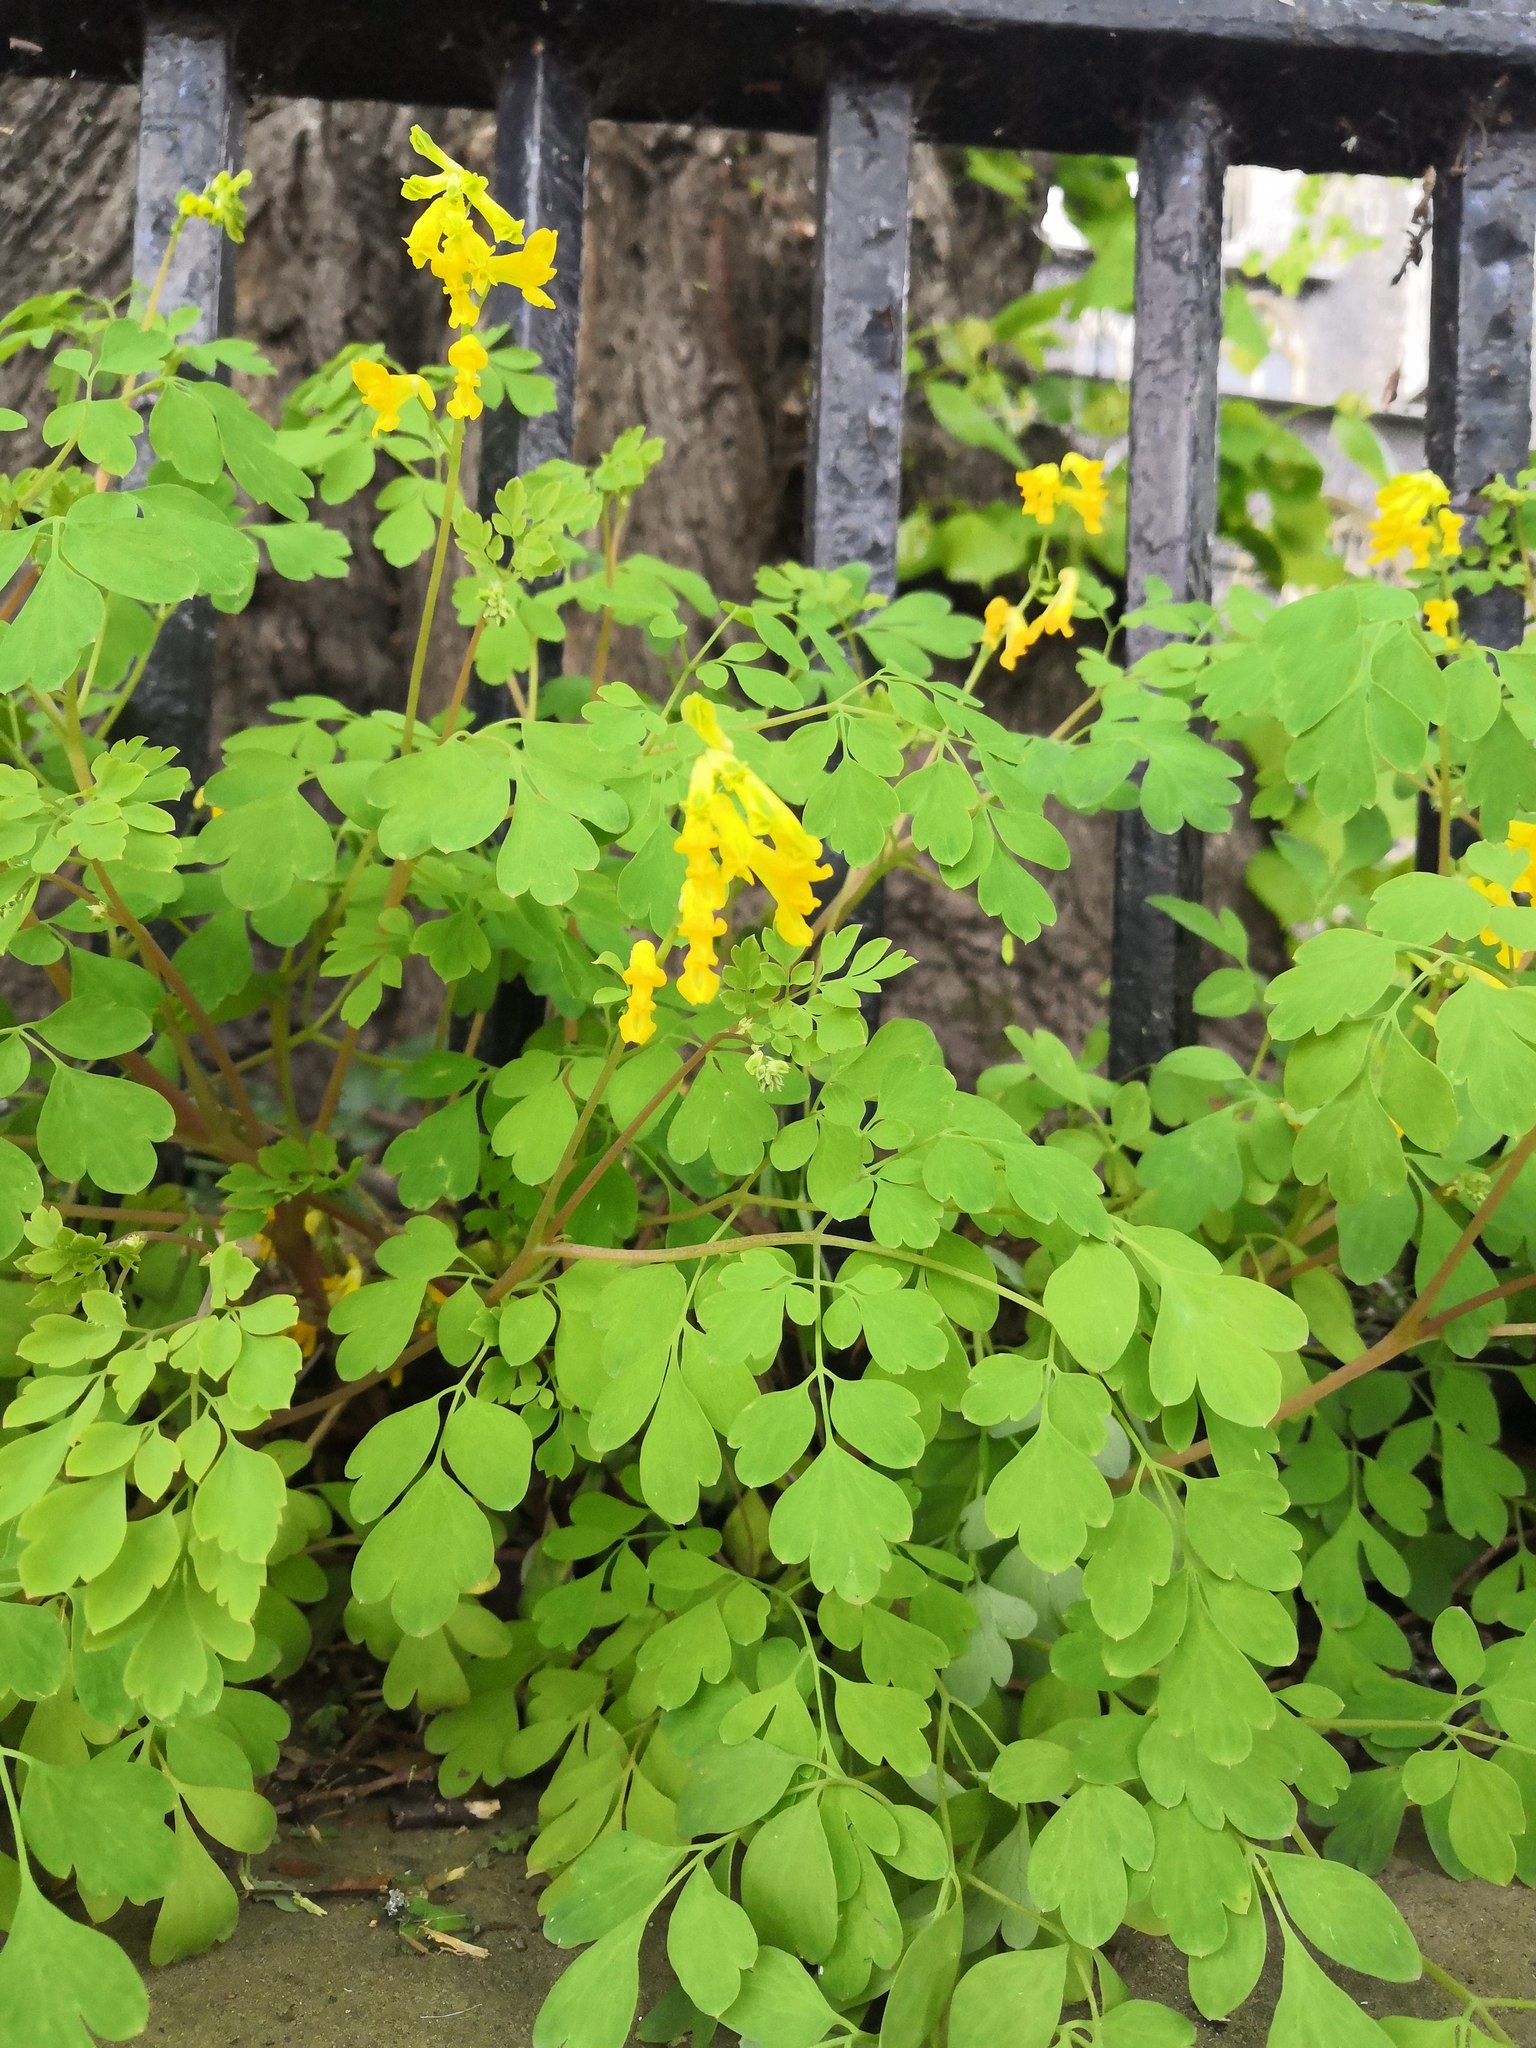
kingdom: Plantae
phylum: Tracheophyta
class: Magnoliopsida
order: Ranunculales
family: Papaveraceae
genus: Pseudofumaria
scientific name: Pseudofumaria lutea
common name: Yellow corydalis
